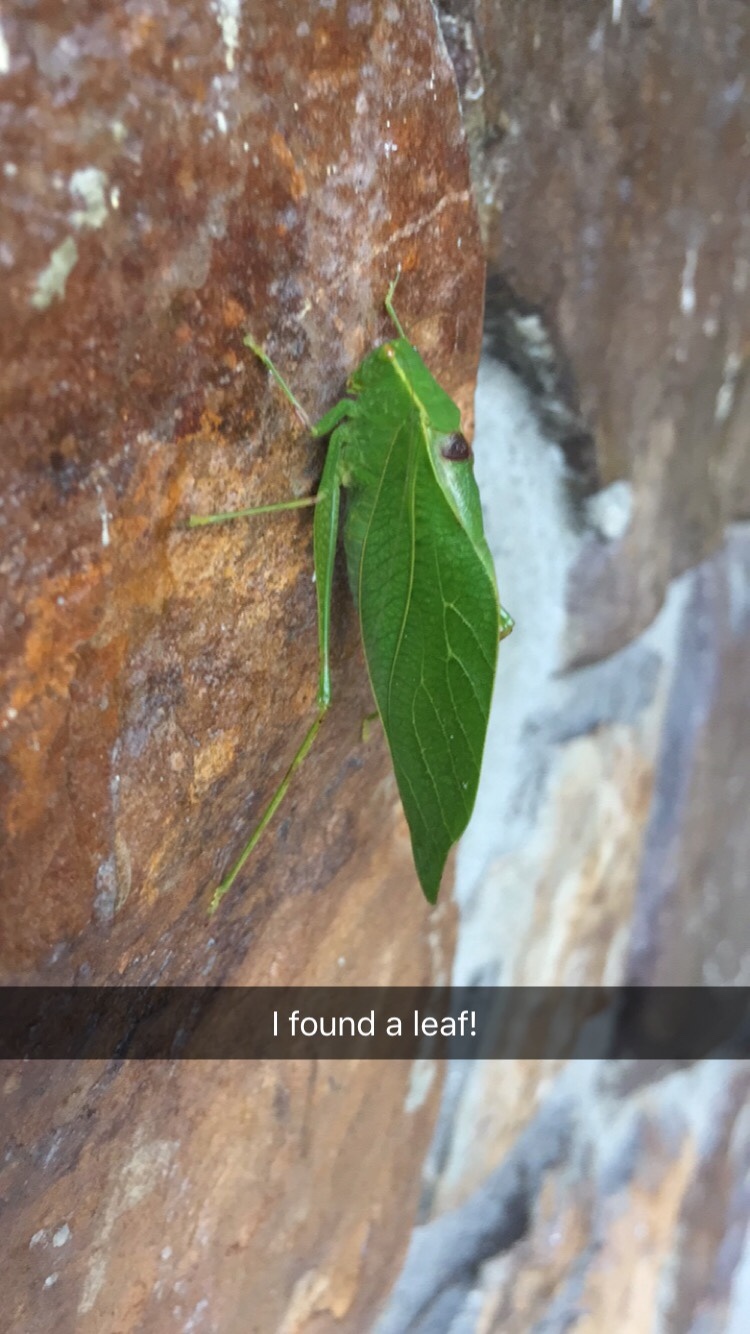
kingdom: Animalia
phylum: Arthropoda
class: Insecta
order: Orthoptera
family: Tettigoniidae
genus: Microcentrum
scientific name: Microcentrum retinerve
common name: Angular-winged katydid
